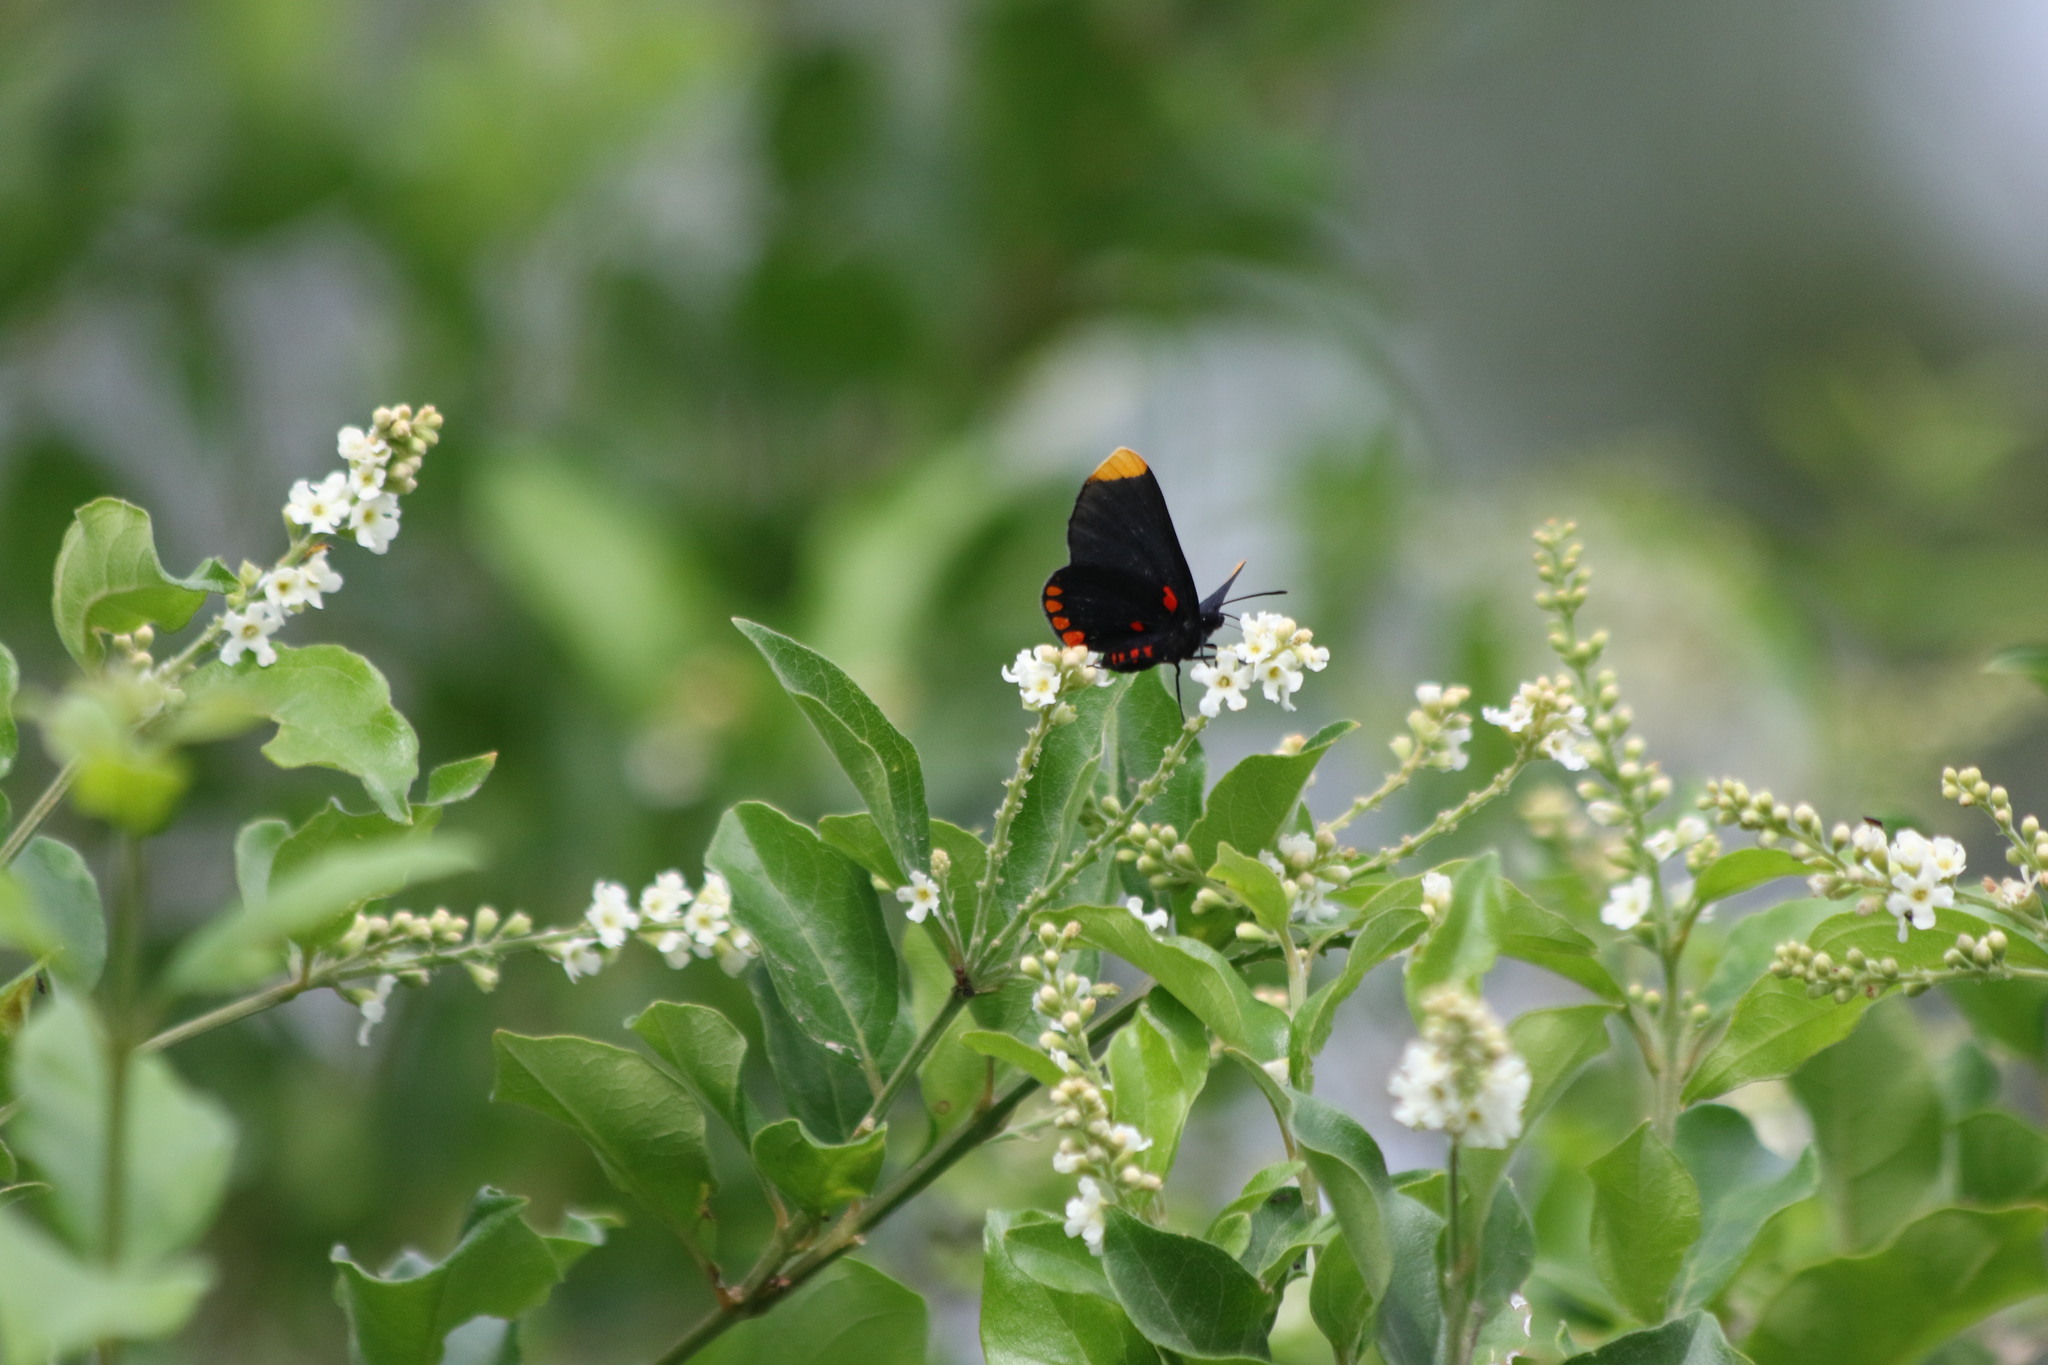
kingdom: Animalia
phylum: Arthropoda
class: Insecta
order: Lepidoptera
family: Lycaenidae
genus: Melanis
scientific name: Melanis pixe
